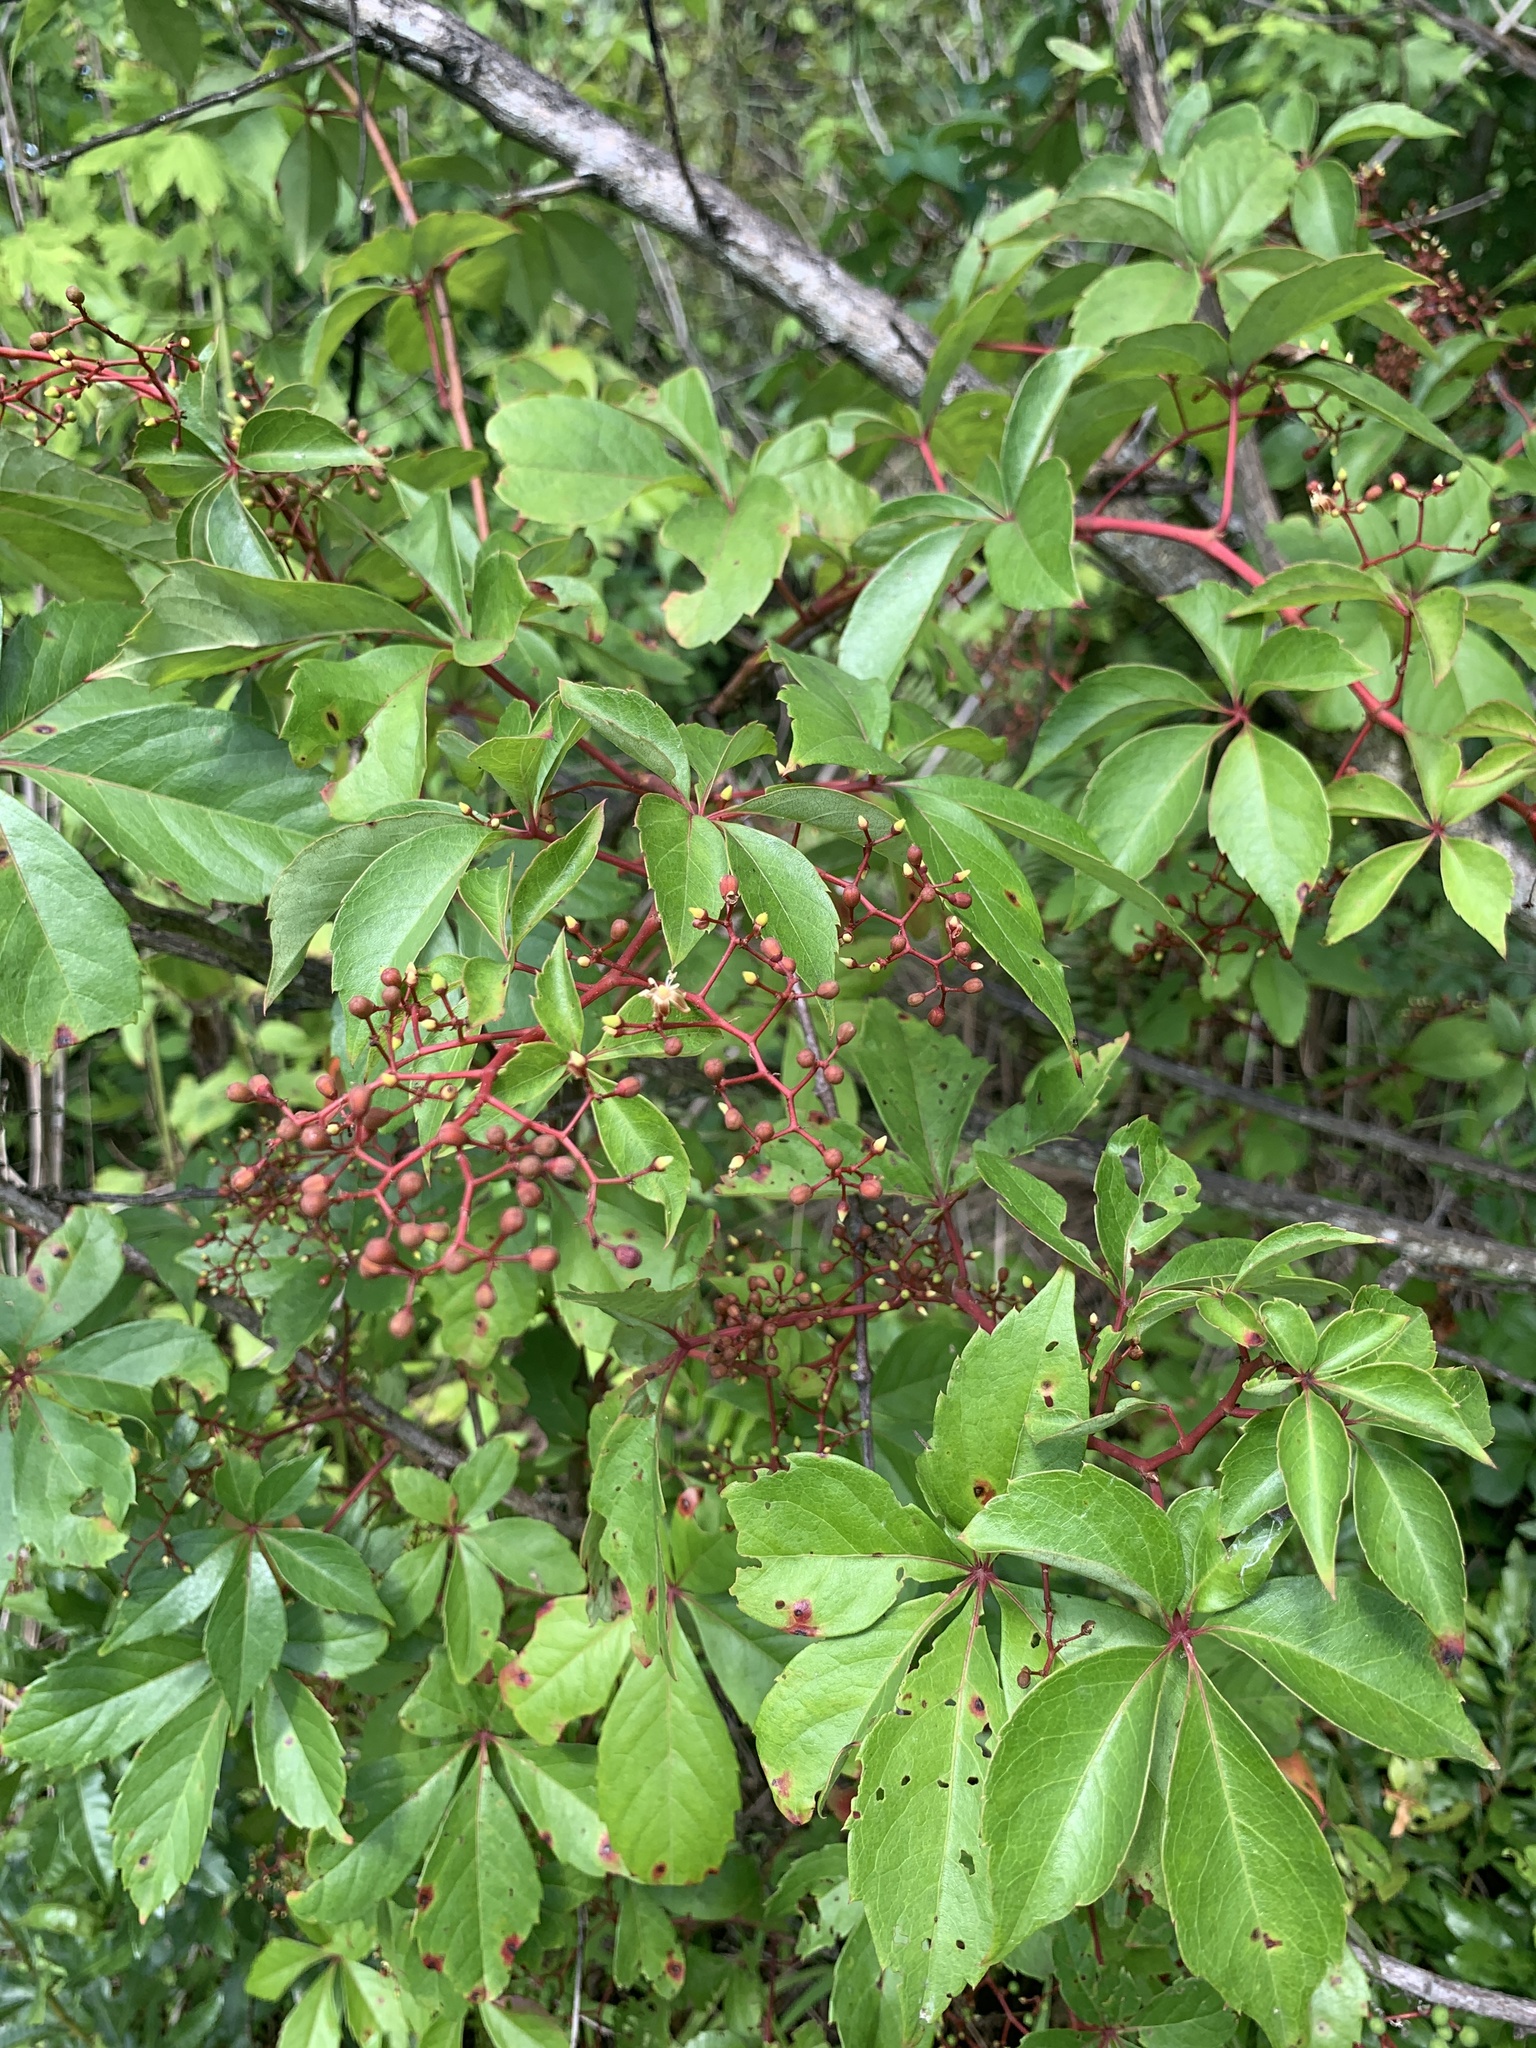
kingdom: Plantae
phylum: Tracheophyta
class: Magnoliopsida
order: Vitales
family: Vitaceae
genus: Parthenocissus
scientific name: Parthenocissus quinquefolia
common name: Virginia-creeper
